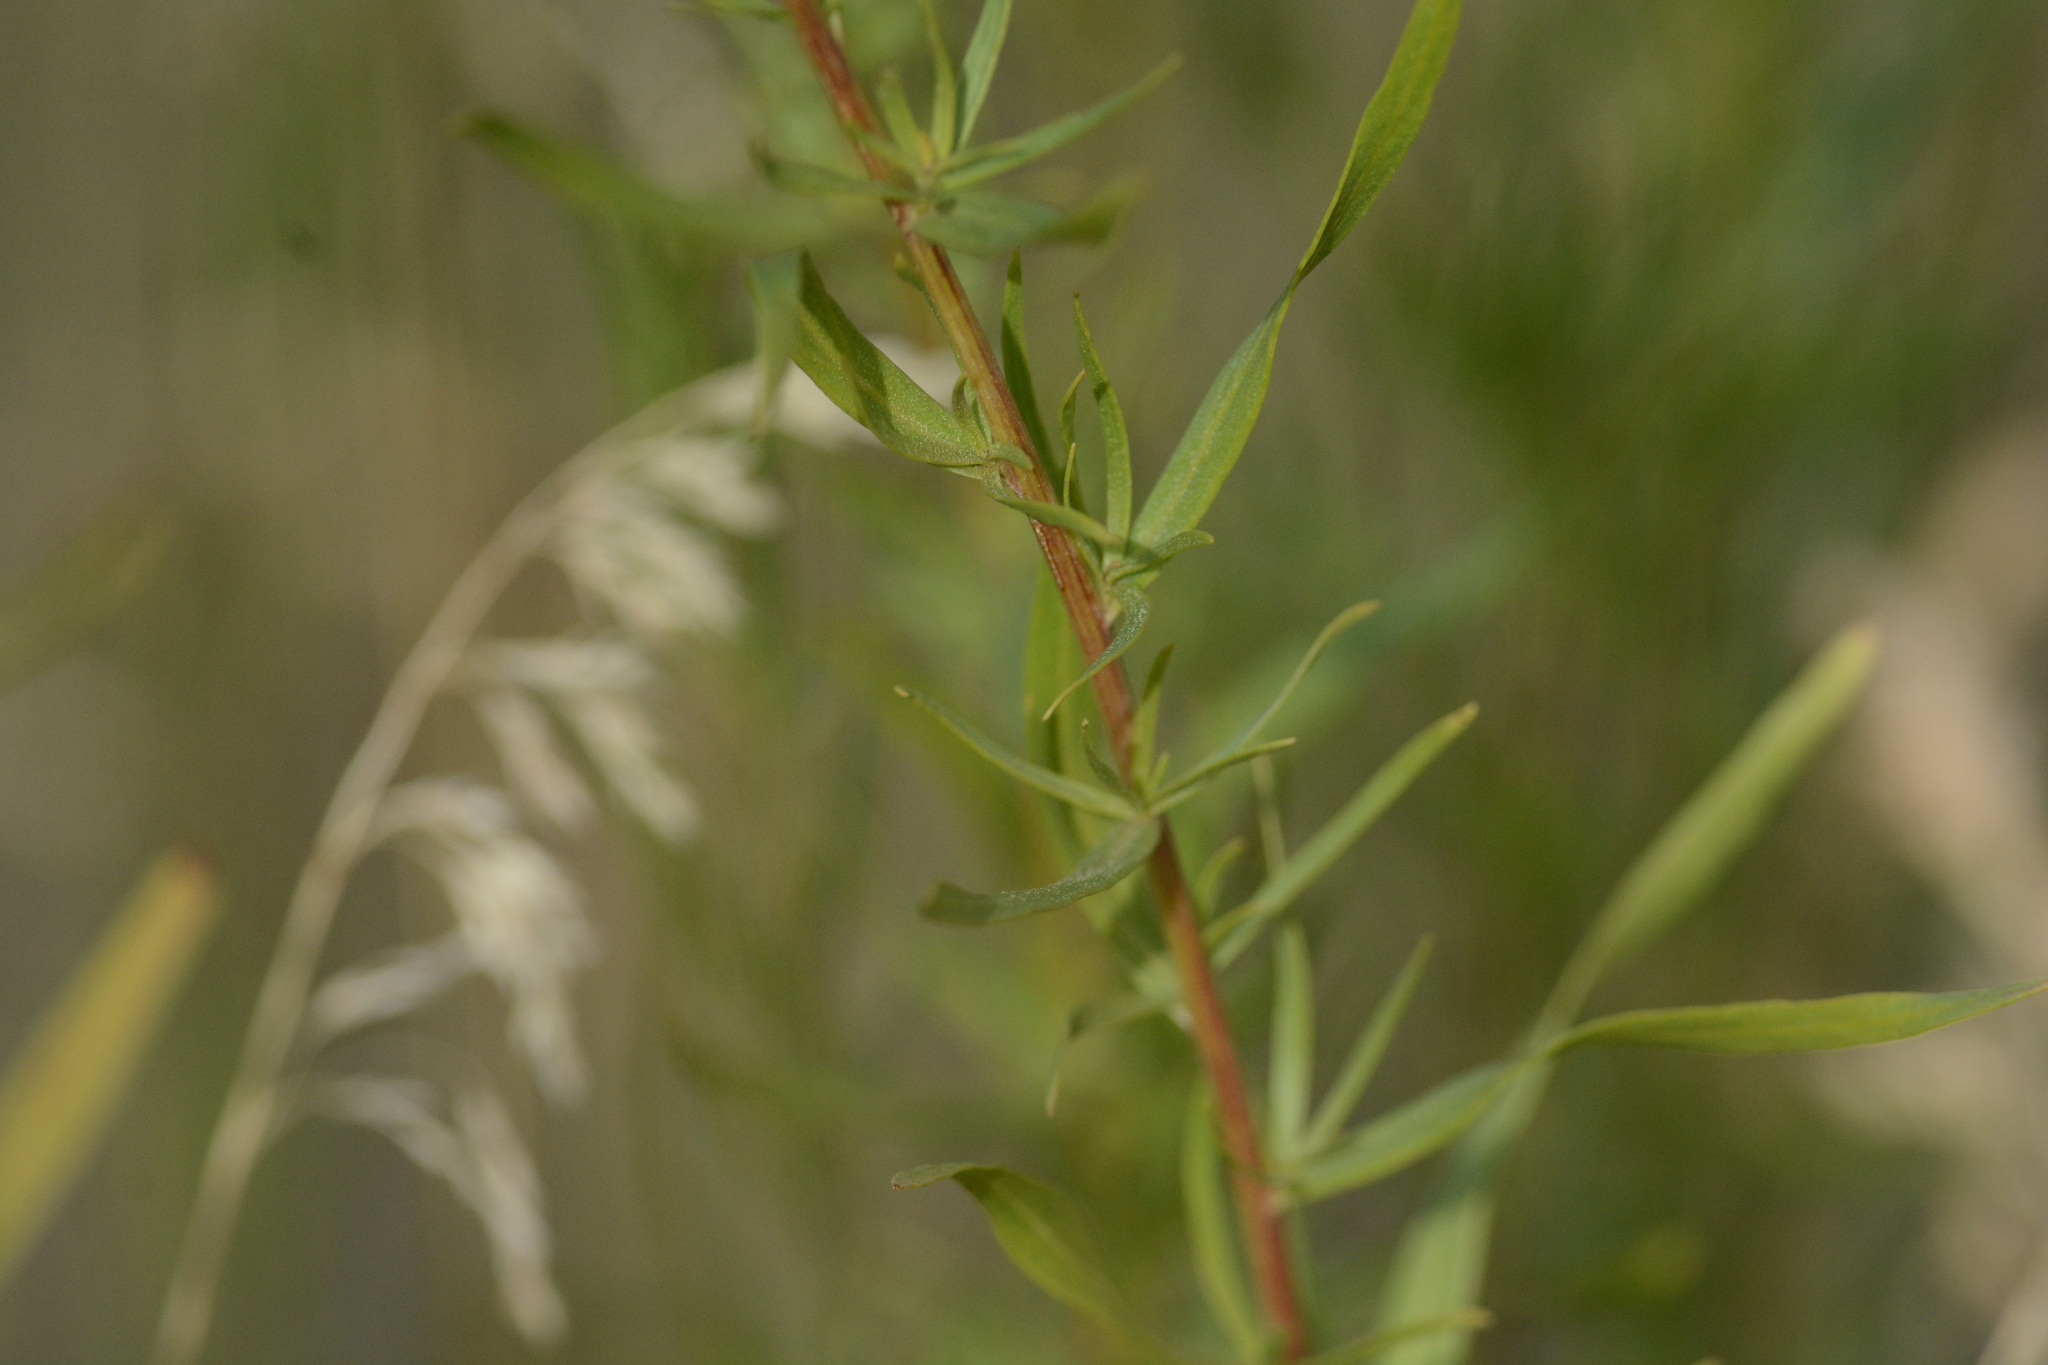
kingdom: Plantae
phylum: Tracheophyta
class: Magnoliopsida
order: Asterales
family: Asteraceae
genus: Artemisia
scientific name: Artemisia dracunculus
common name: Tarragon
